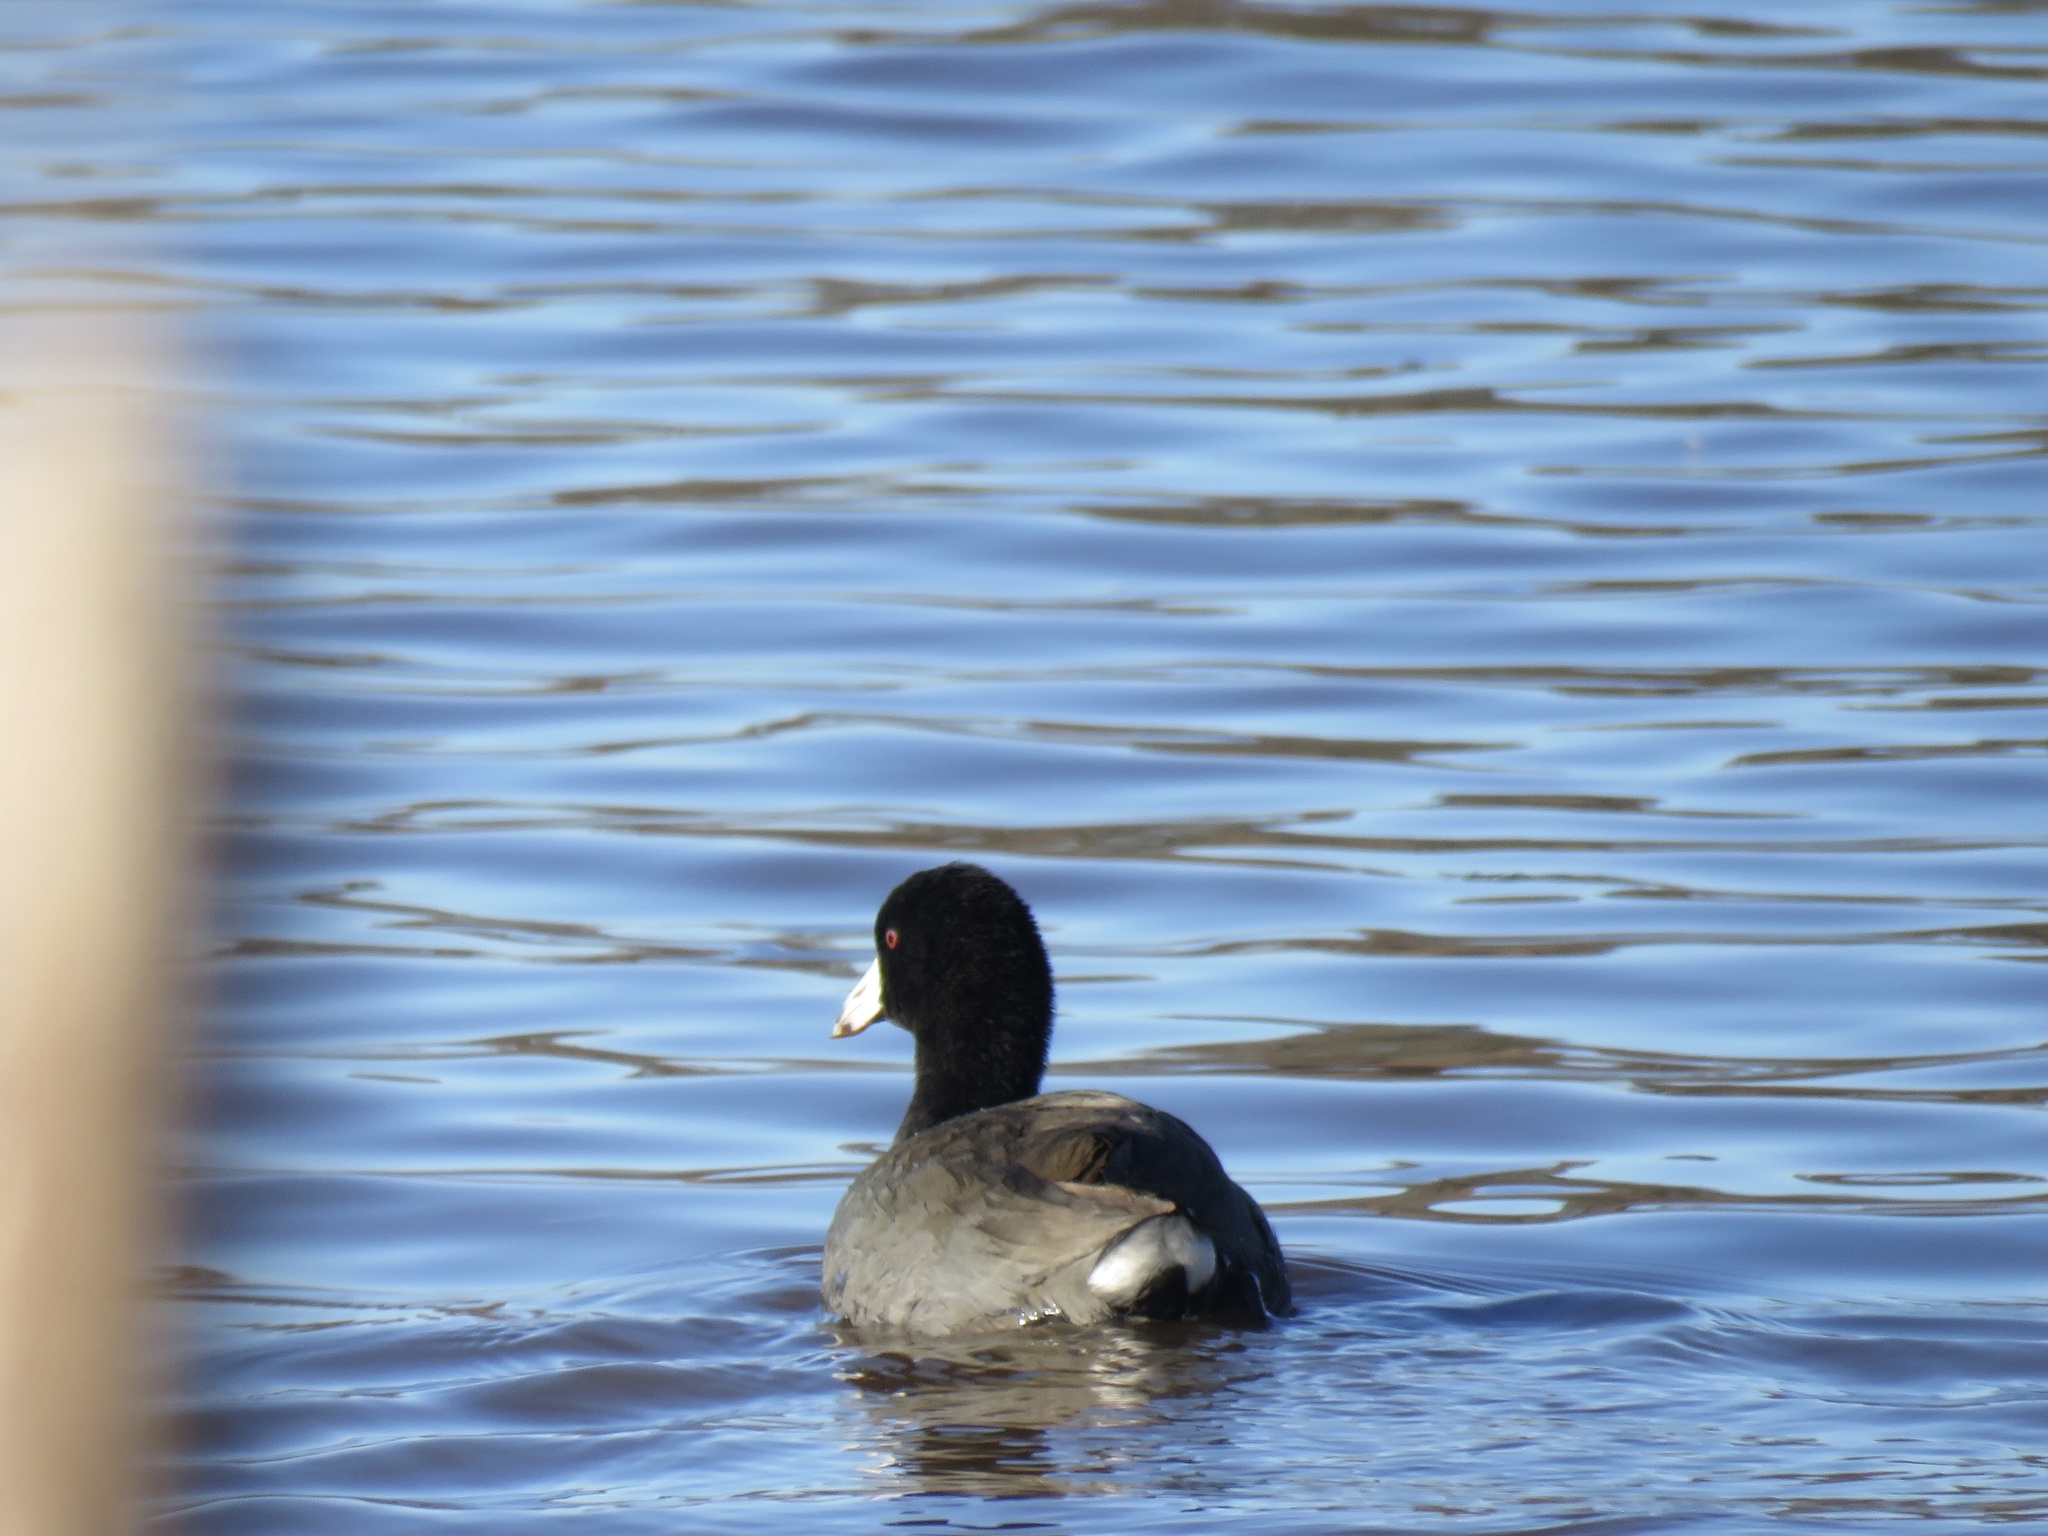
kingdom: Animalia
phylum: Chordata
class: Aves
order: Gruiformes
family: Rallidae
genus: Fulica
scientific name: Fulica americana
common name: American coot
